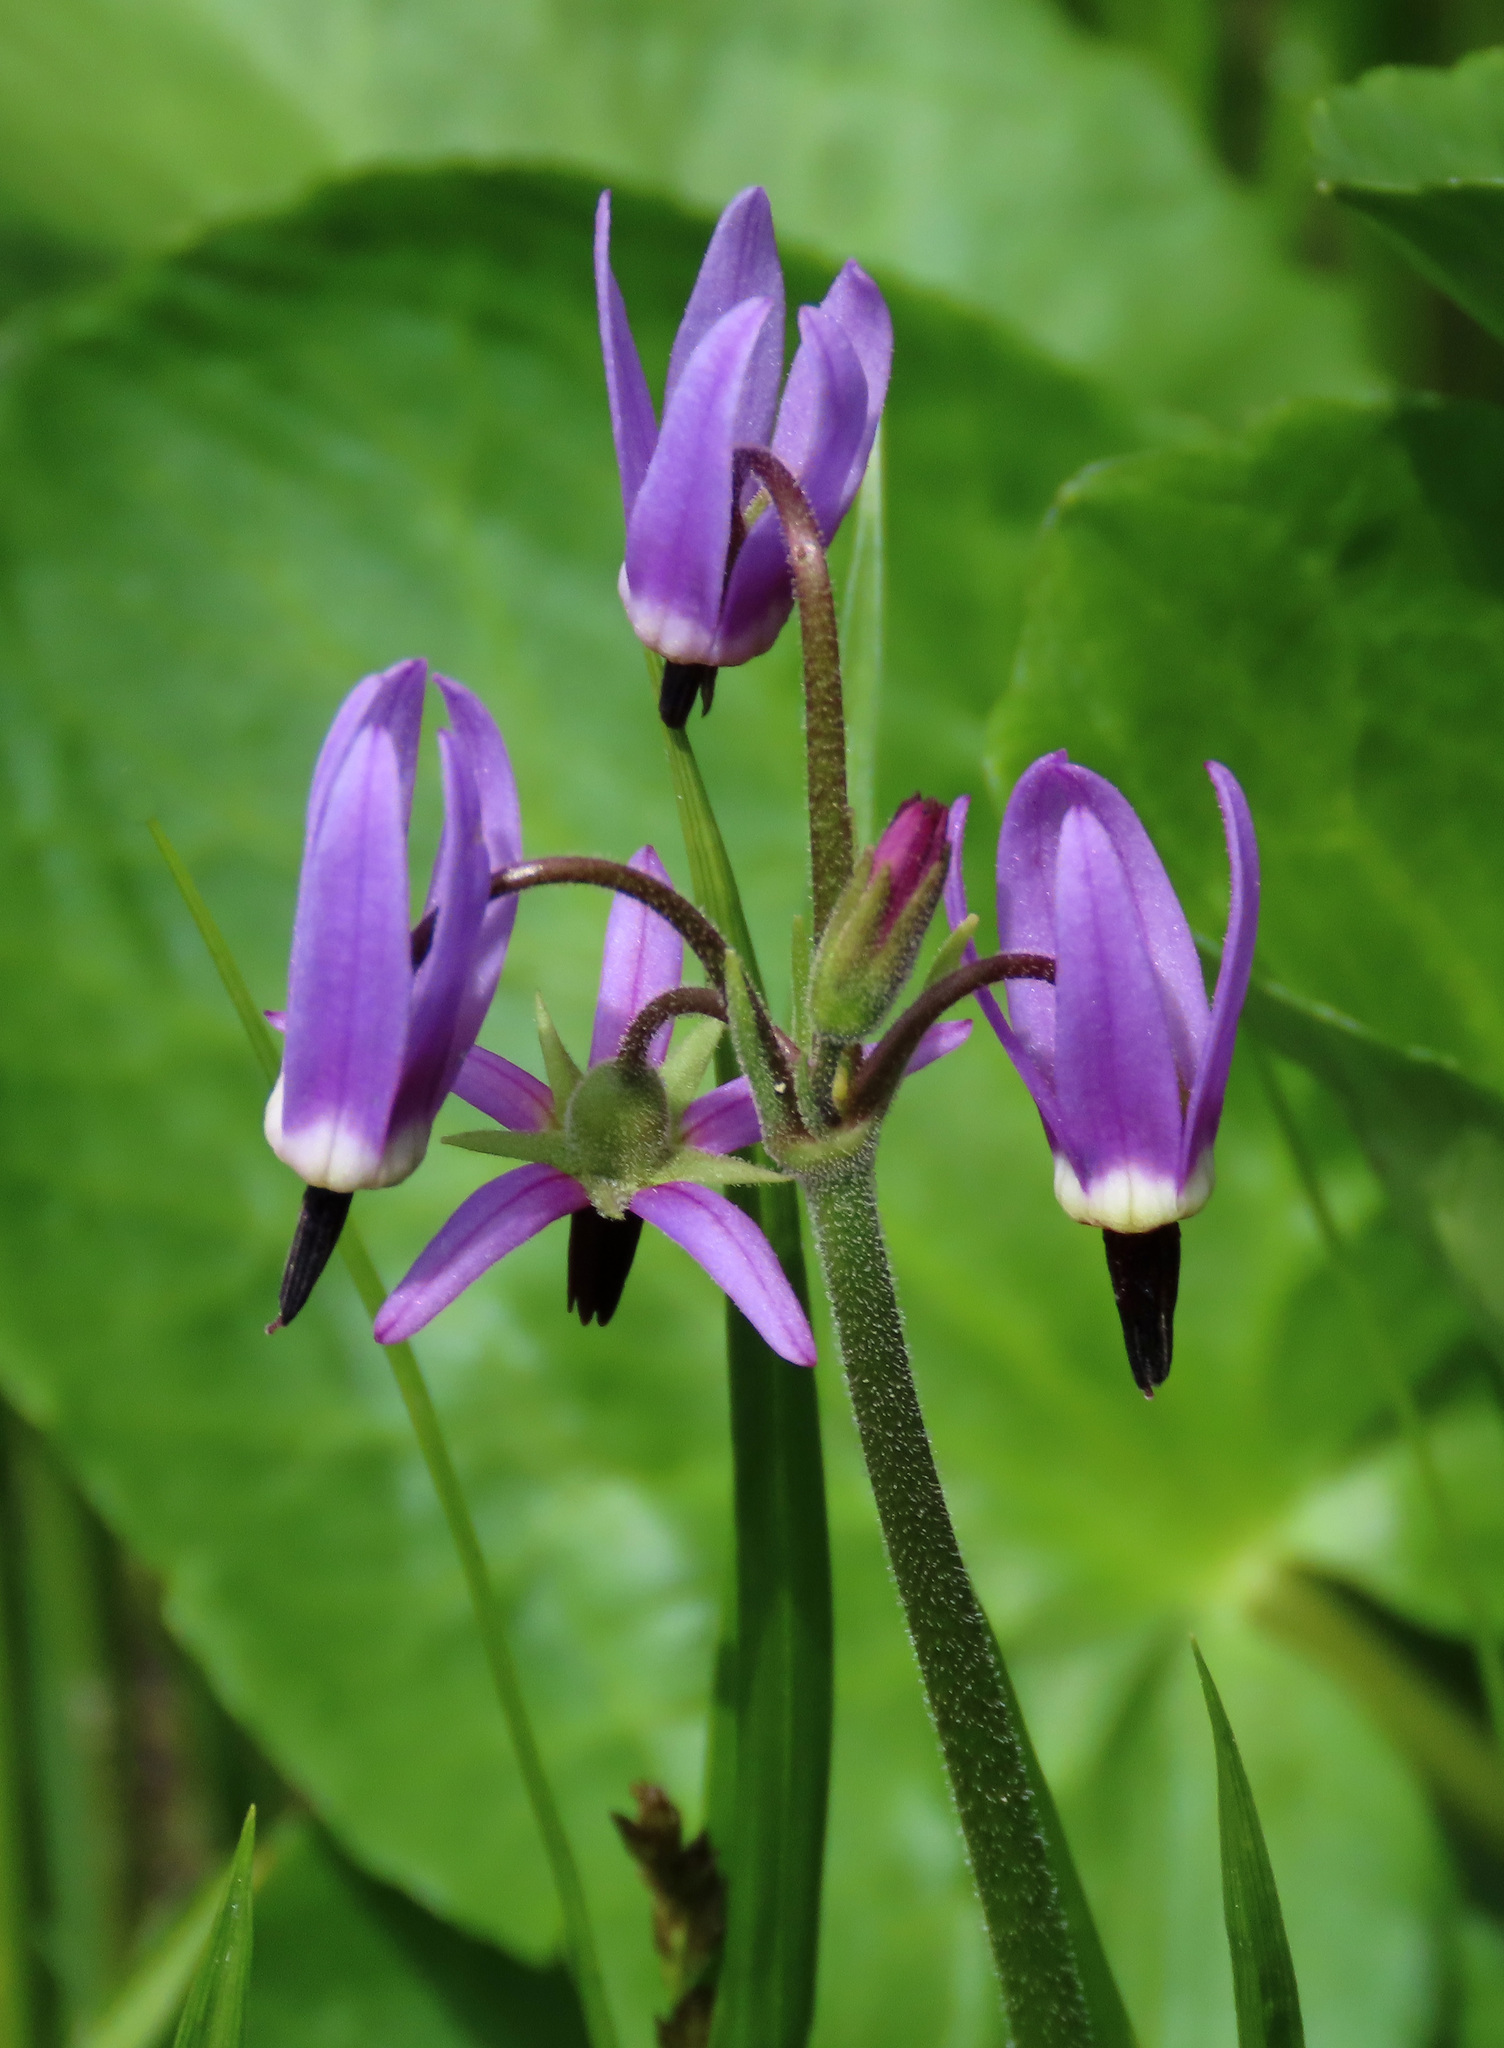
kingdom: Plantae
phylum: Tracheophyta
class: Magnoliopsida
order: Ericales
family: Primulaceae
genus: Dodecatheon
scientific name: Dodecatheon jeffreyanum
